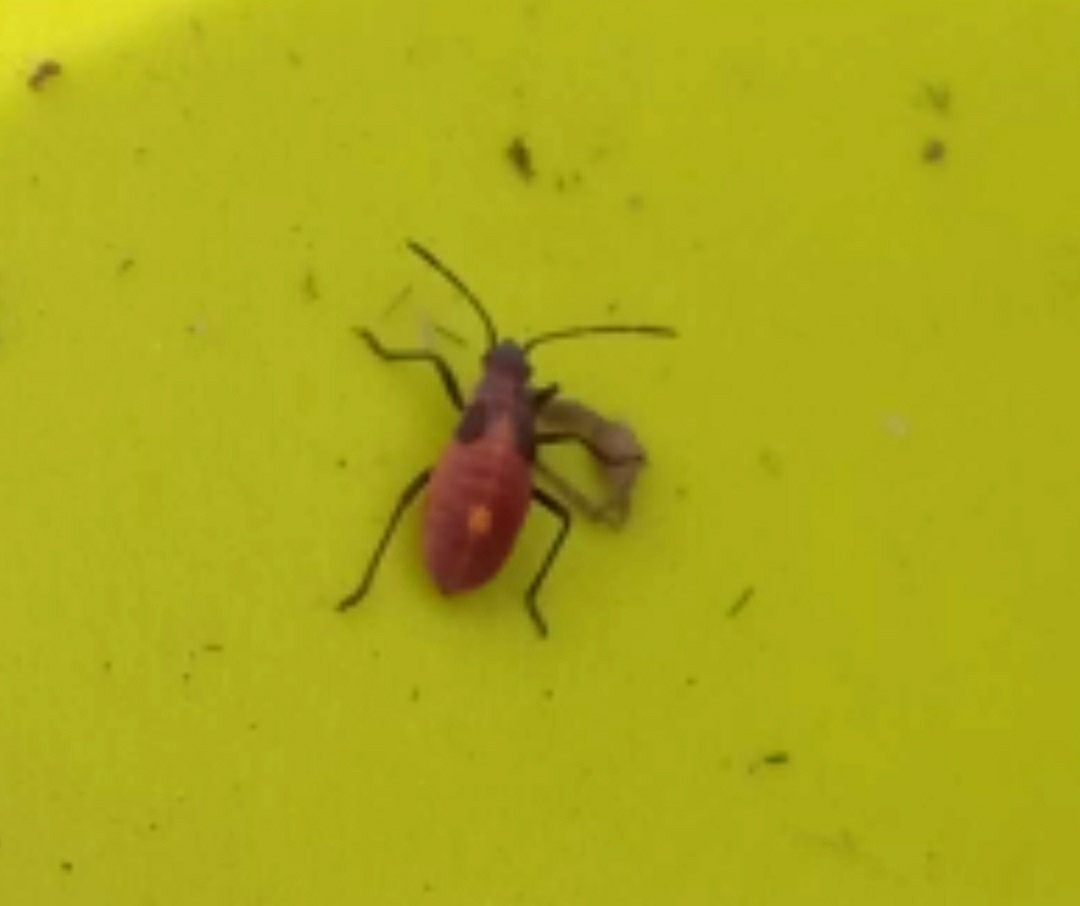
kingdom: Animalia
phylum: Arthropoda
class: Insecta
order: Hemiptera
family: Rhopalidae
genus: Boisea
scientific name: Boisea trivittata
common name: Boxelder bug
